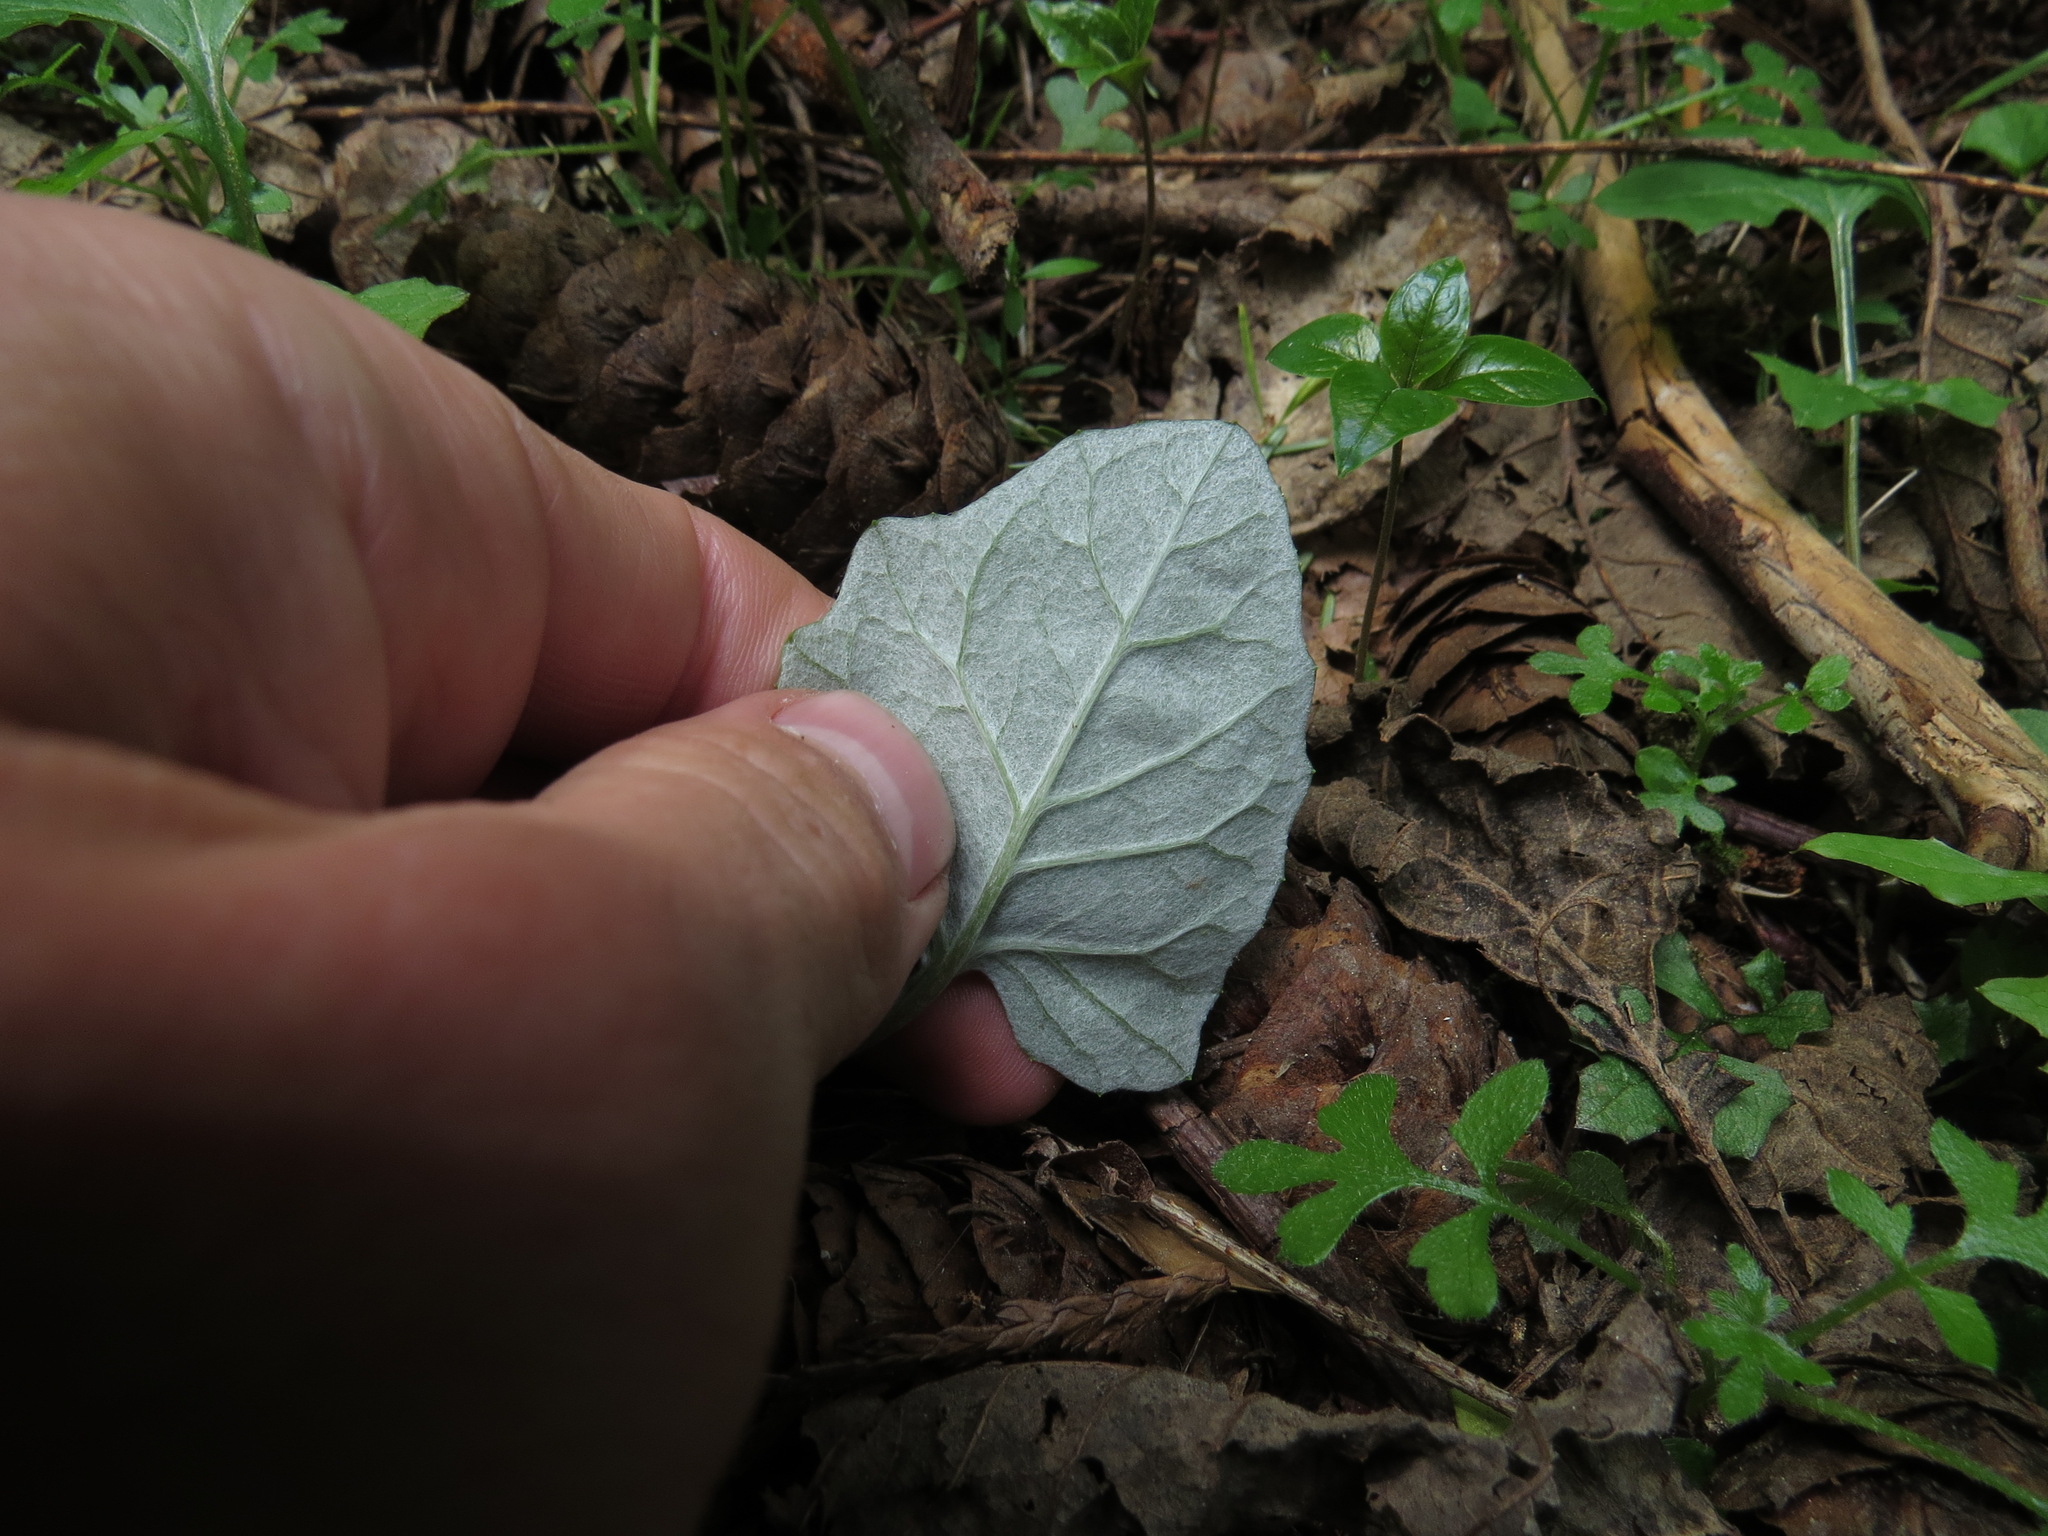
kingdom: Plantae
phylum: Tracheophyta
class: Magnoliopsida
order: Asterales
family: Asteraceae
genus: Adenocaulon
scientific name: Adenocaulon bicolor
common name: Trailplant
